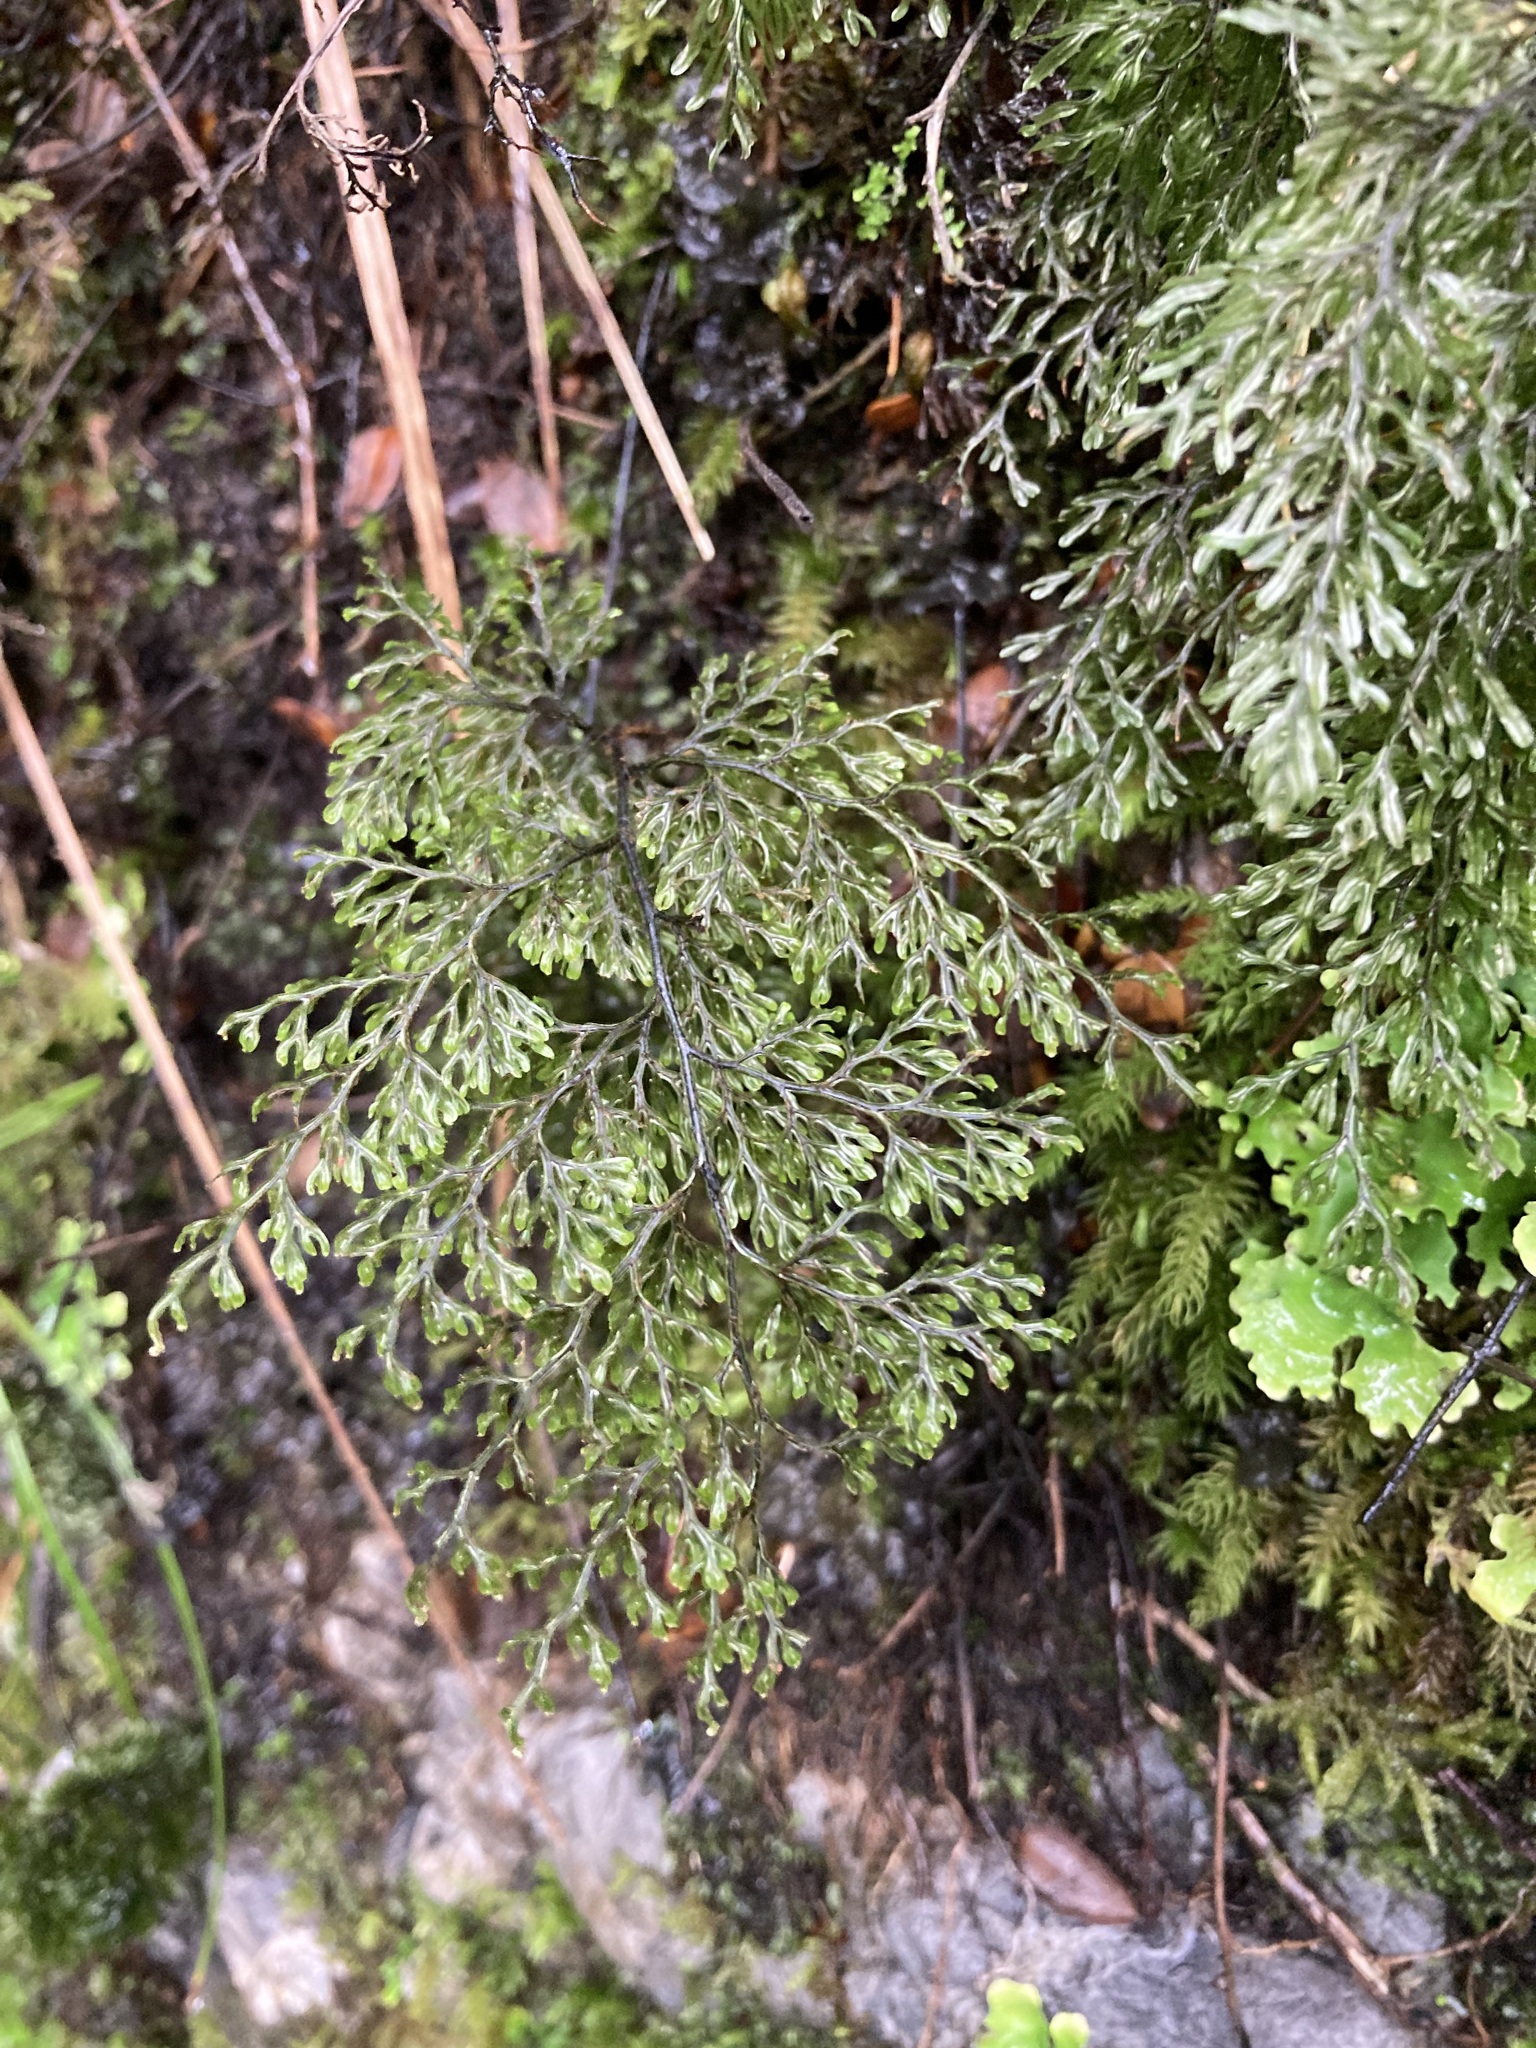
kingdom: Plantae
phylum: Tracheophyta
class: Polypodiopsida
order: Hymenophyllales
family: Hymenophyllaceae
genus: Hymenophyllum
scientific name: Hymenophyllum villosum
